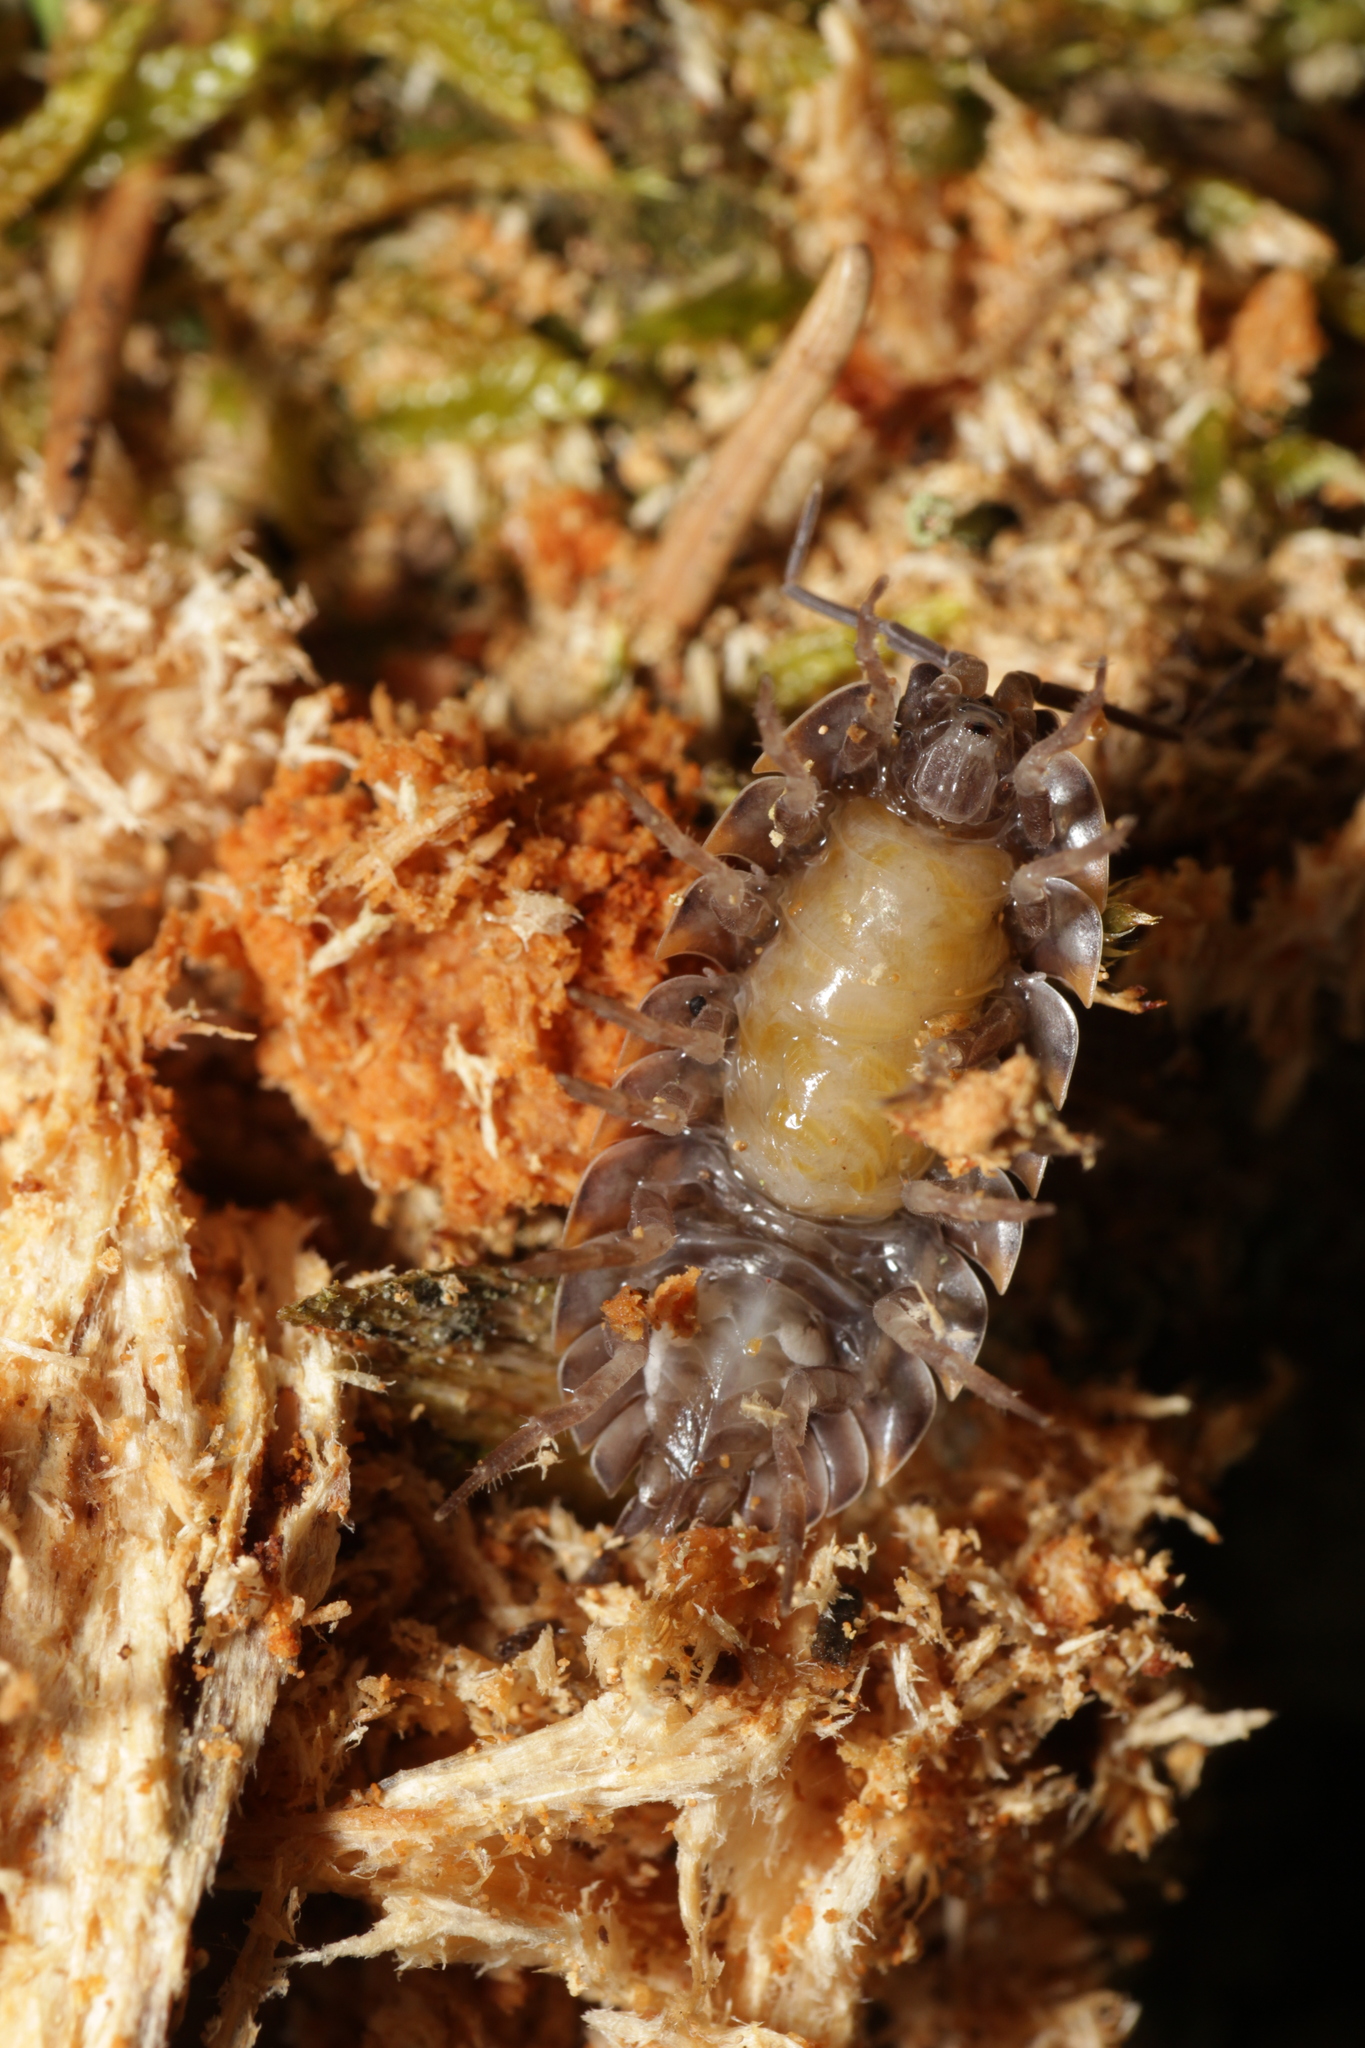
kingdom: Animalia
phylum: Arthropoda
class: Malacostraca
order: Isopoda
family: Trachelipodidae
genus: Trachelipus
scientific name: Trachelipus ratzeburgii
